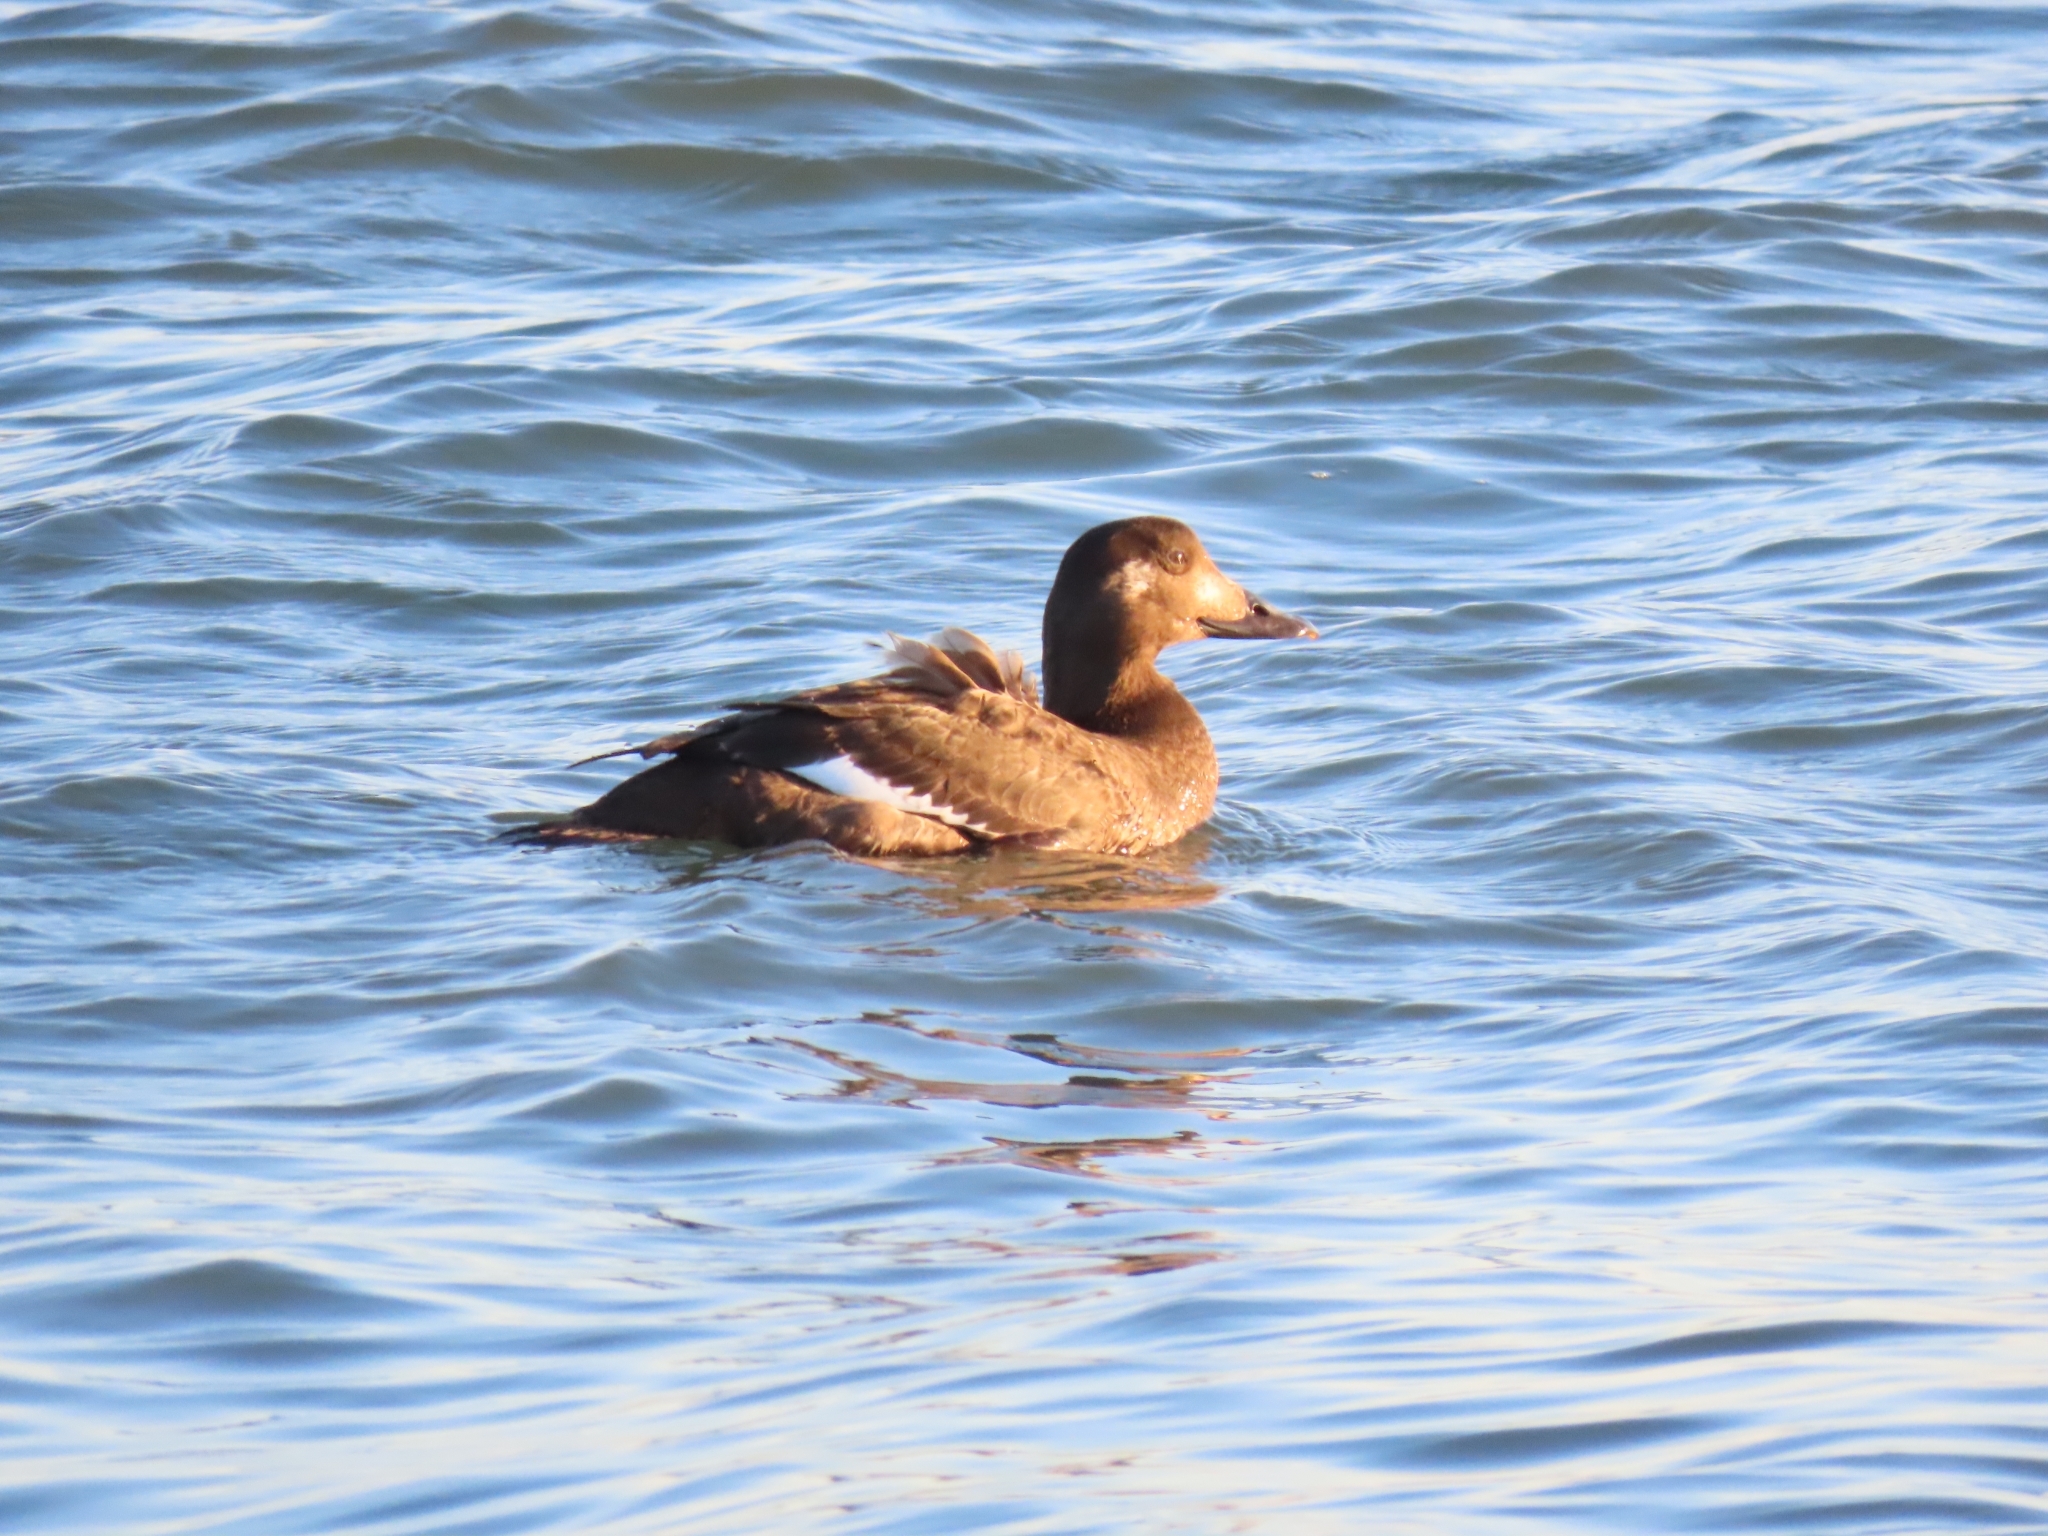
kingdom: Animalia
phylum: Chordata
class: Aves
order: Anseriformes
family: Anatidae
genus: Melanitta
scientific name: Melanitta deglandi
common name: White-winged scoter
